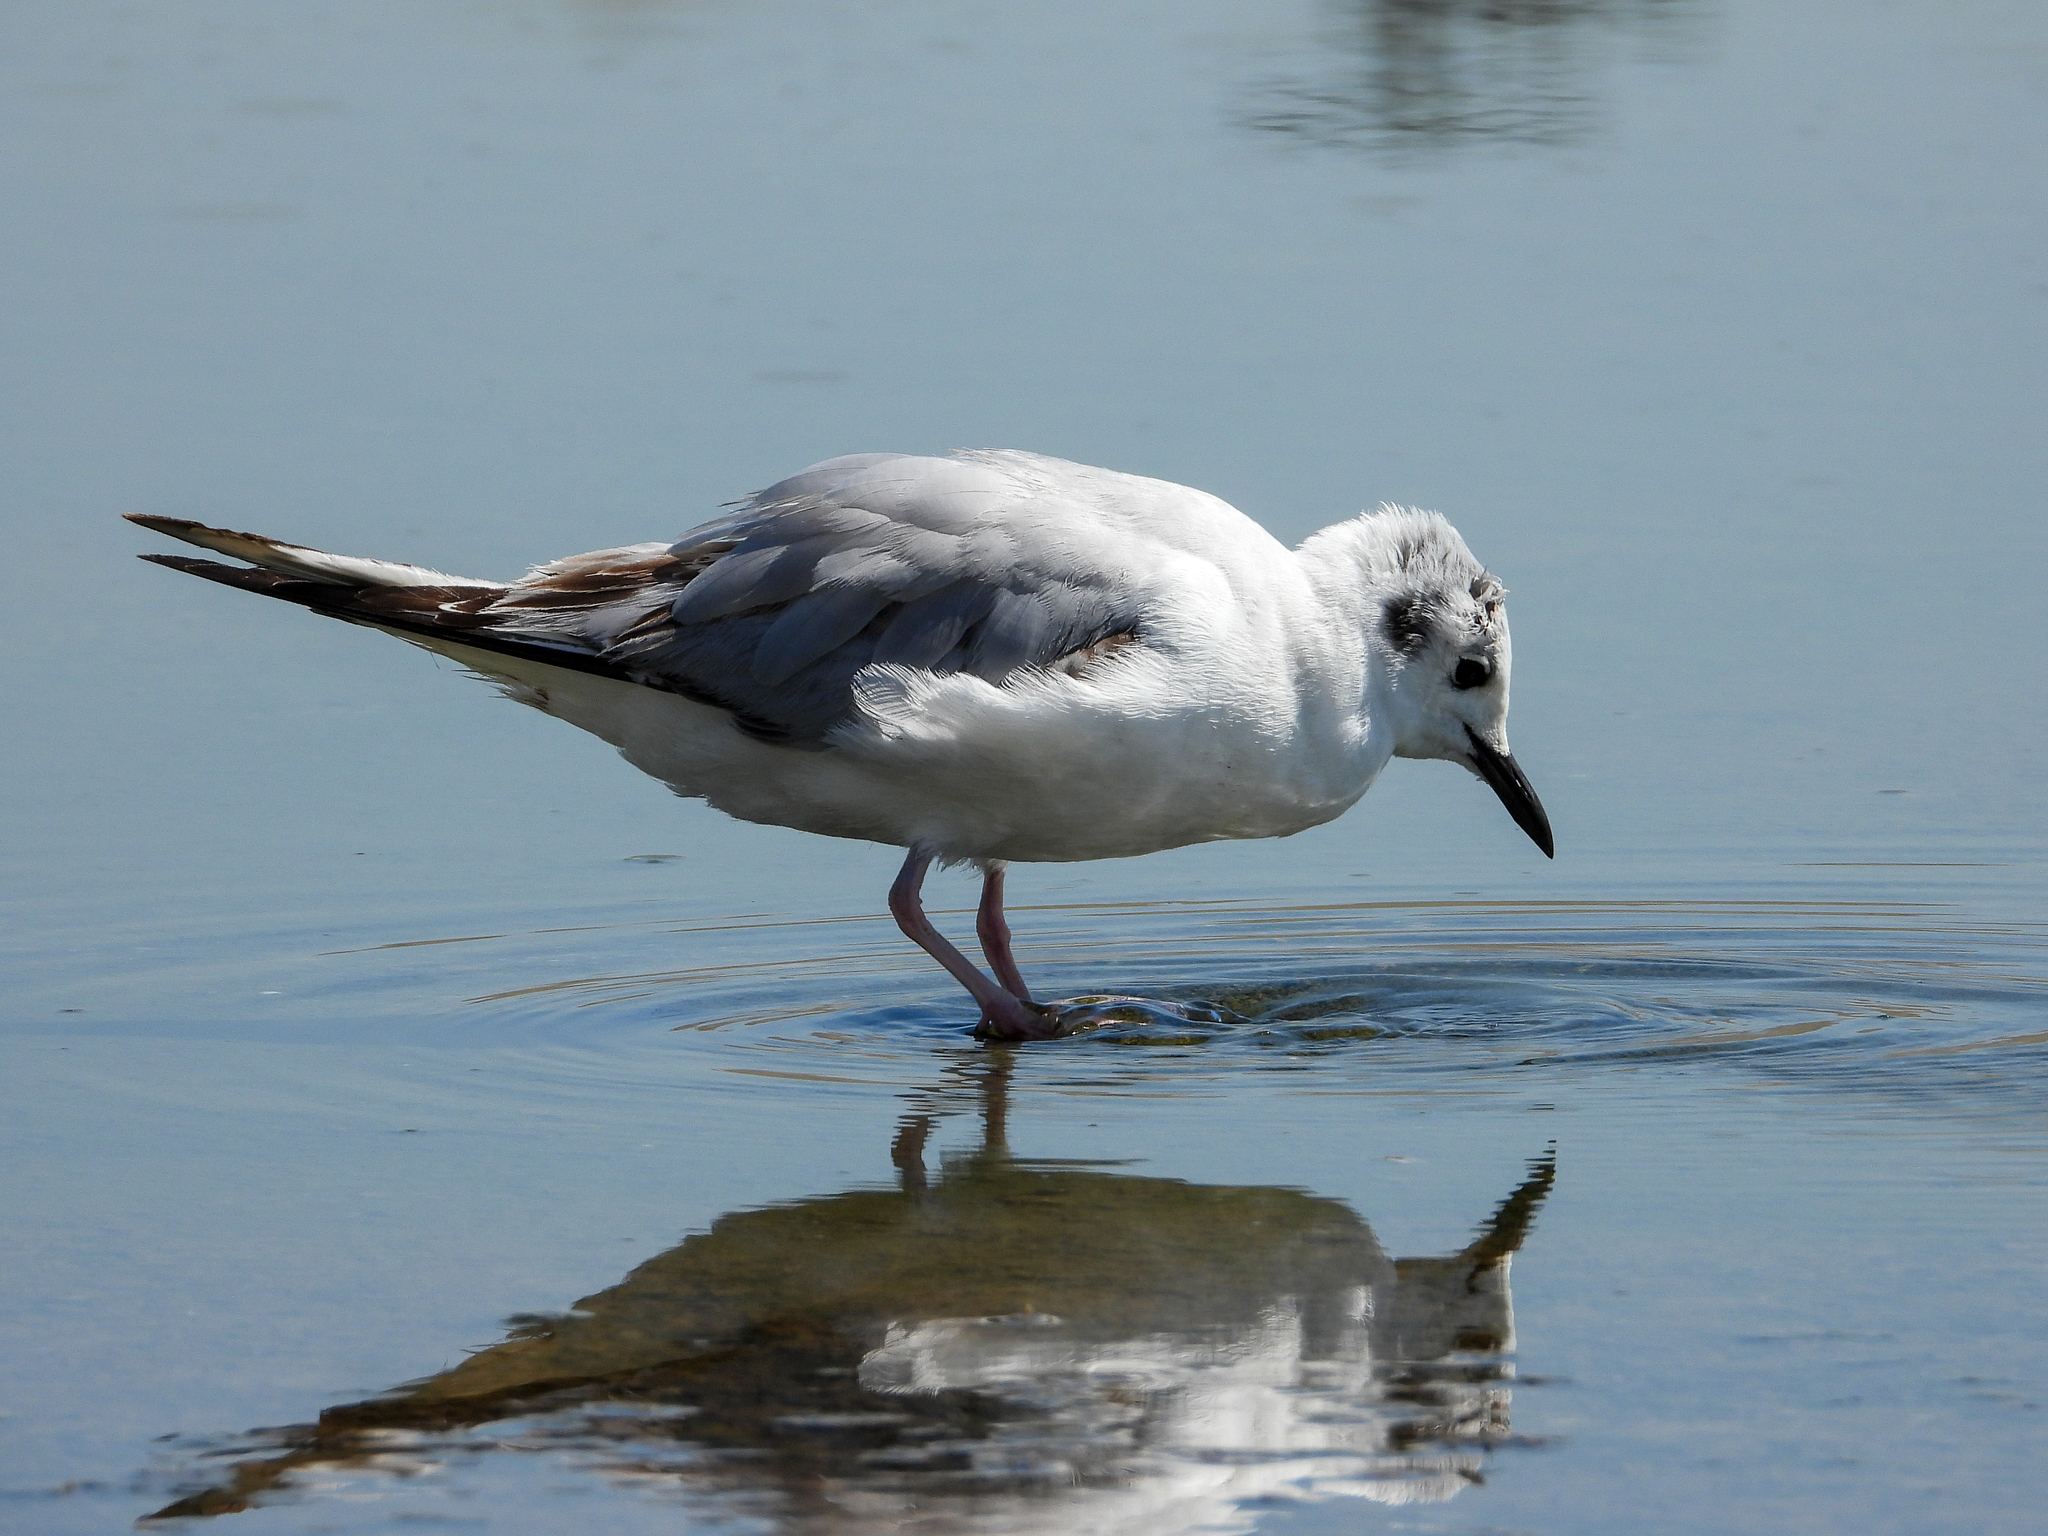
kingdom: Animalia
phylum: Chordata
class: Aves
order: Charadriiformes
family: Laridae
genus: Chroicocephalus
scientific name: Chroicocephalus philadelphia
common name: Bonaparte's gull
